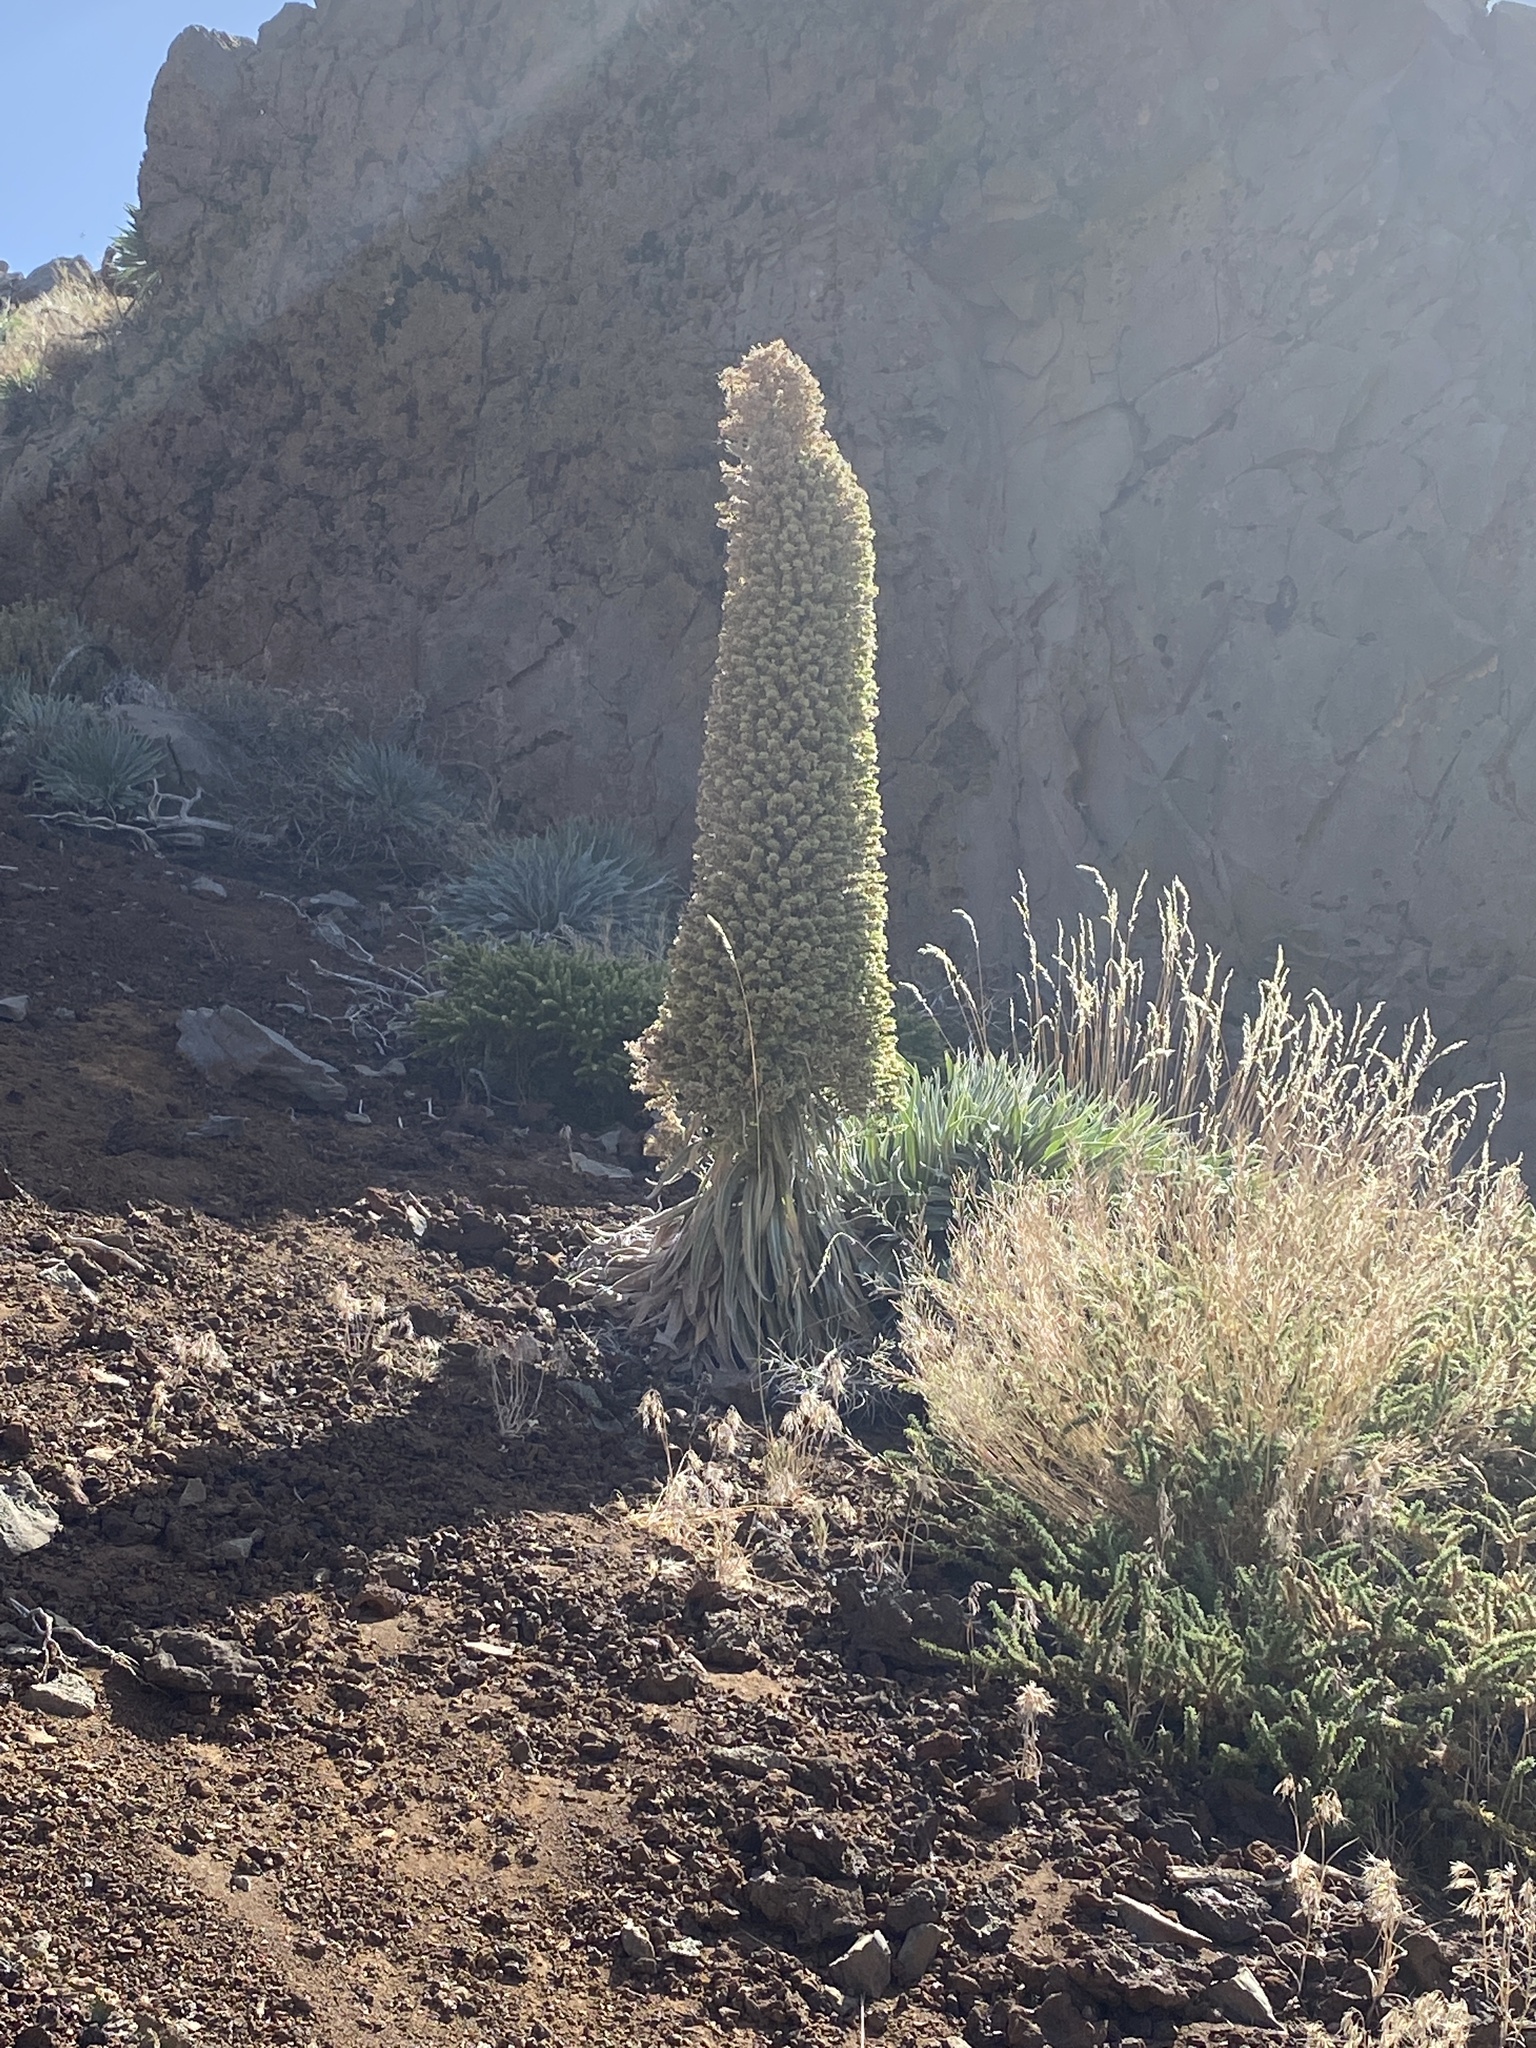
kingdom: Plantae
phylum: Tracheophyta
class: Magnoliopsida
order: Boraginales
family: Boraginaceae
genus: Echium
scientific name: Echium perezii
